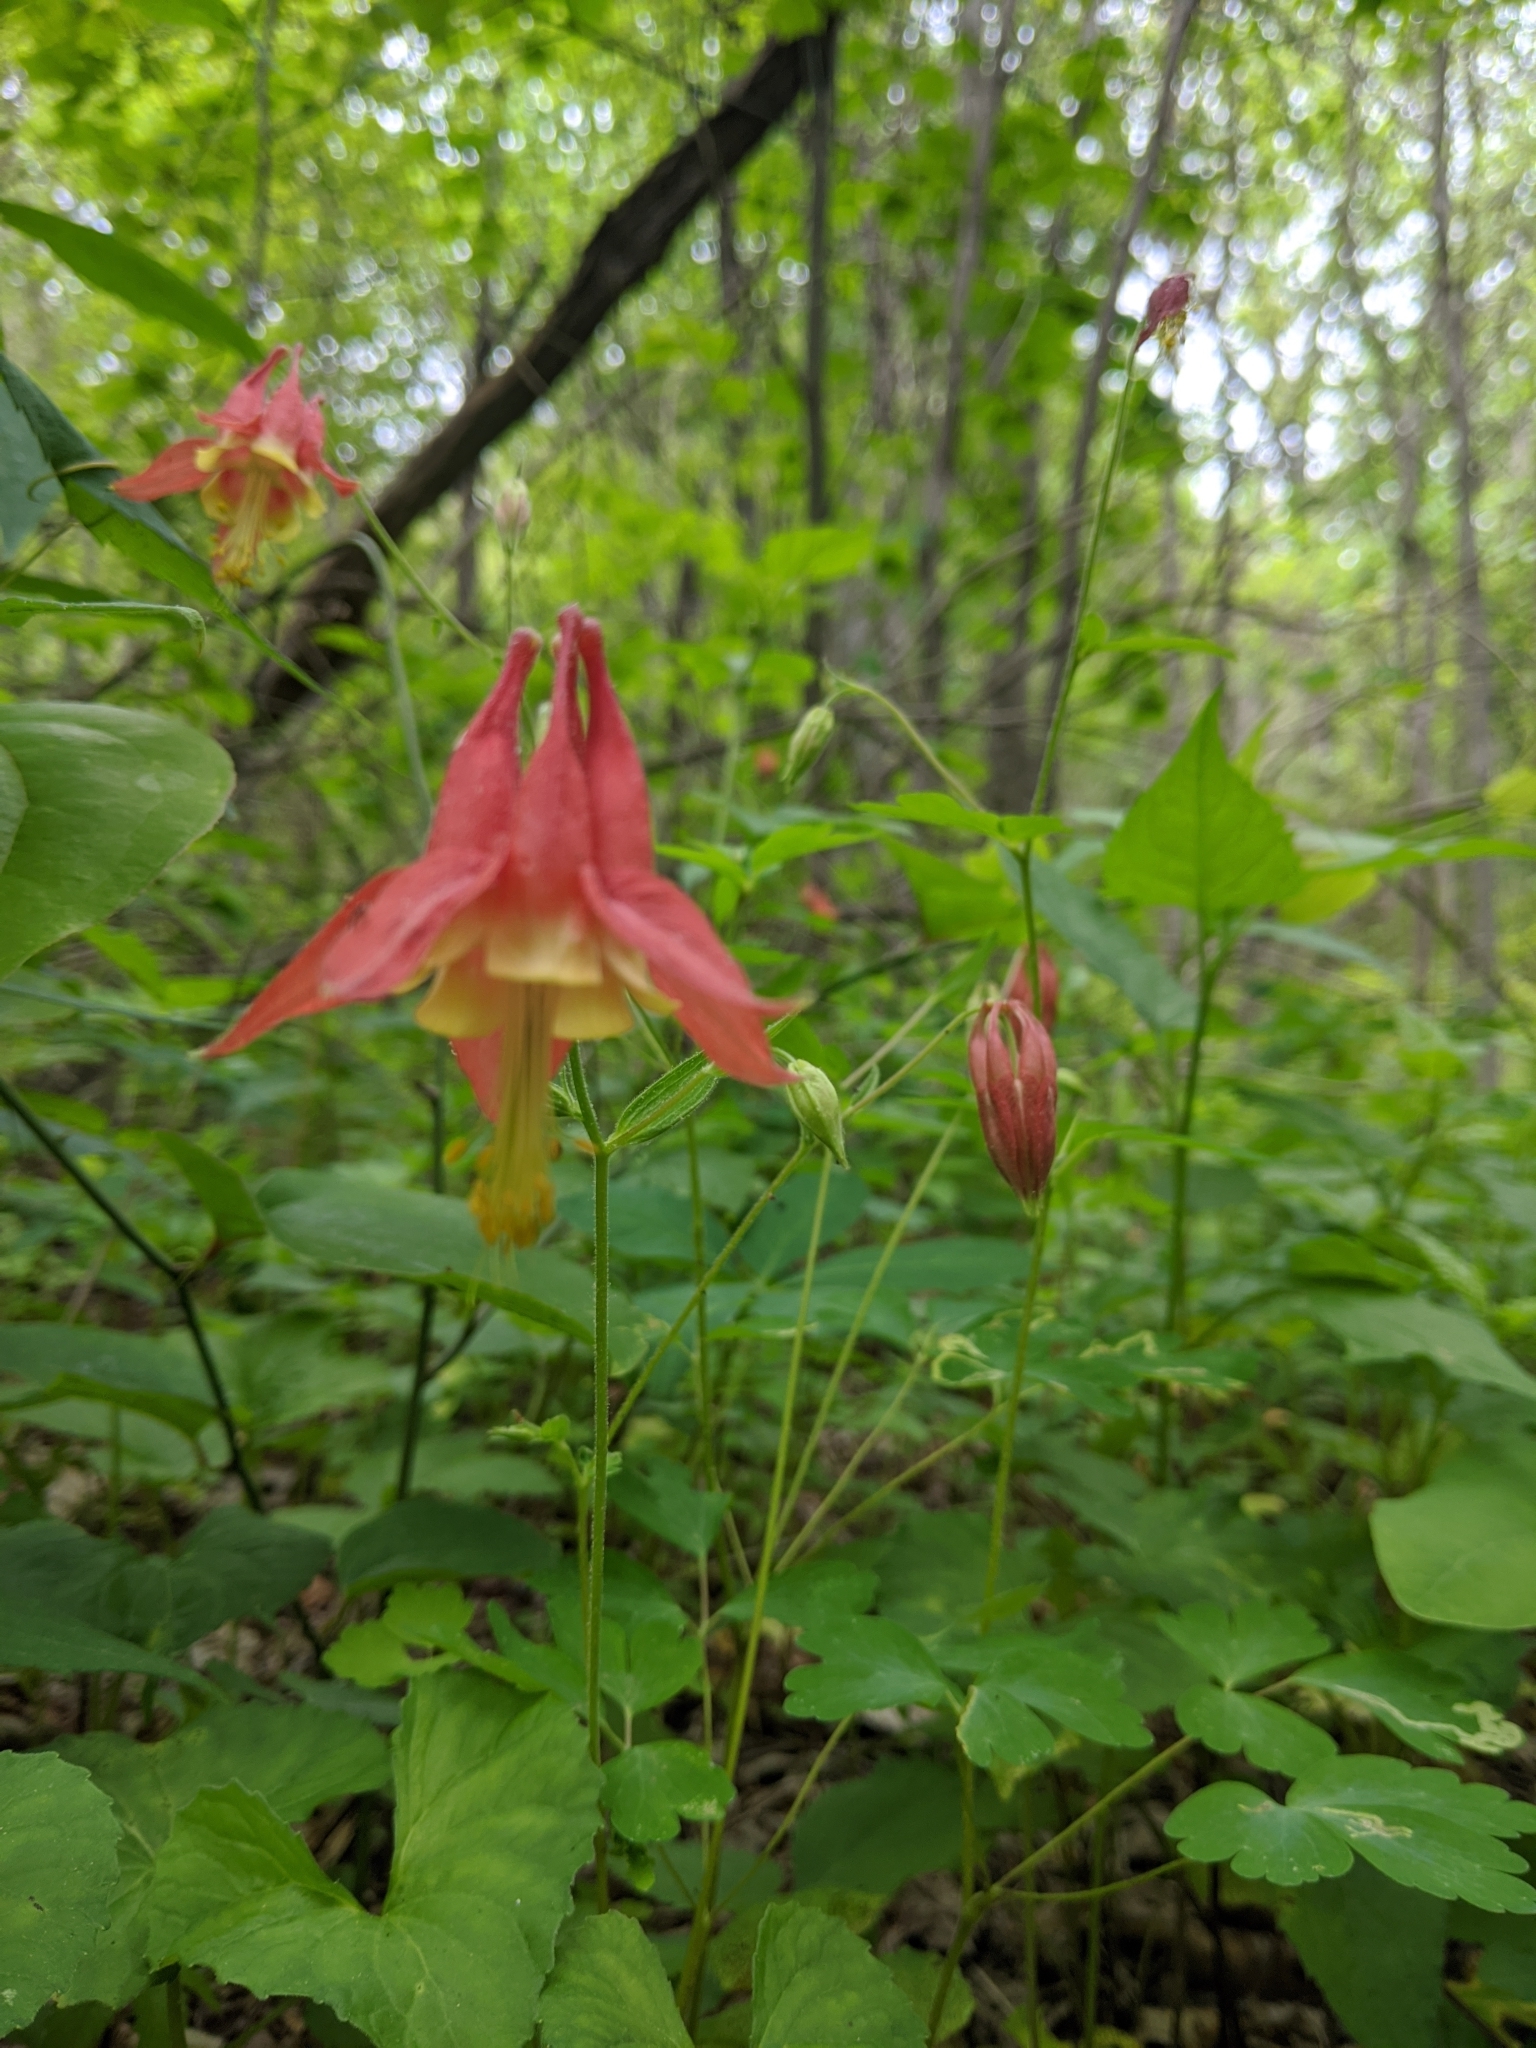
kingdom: Plantae
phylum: Tracheophyta
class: Magnoliopsida
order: Ranunculales
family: Ranunculaceae
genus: Aquilegia
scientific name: Aquilegia canadensis
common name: American columbine
